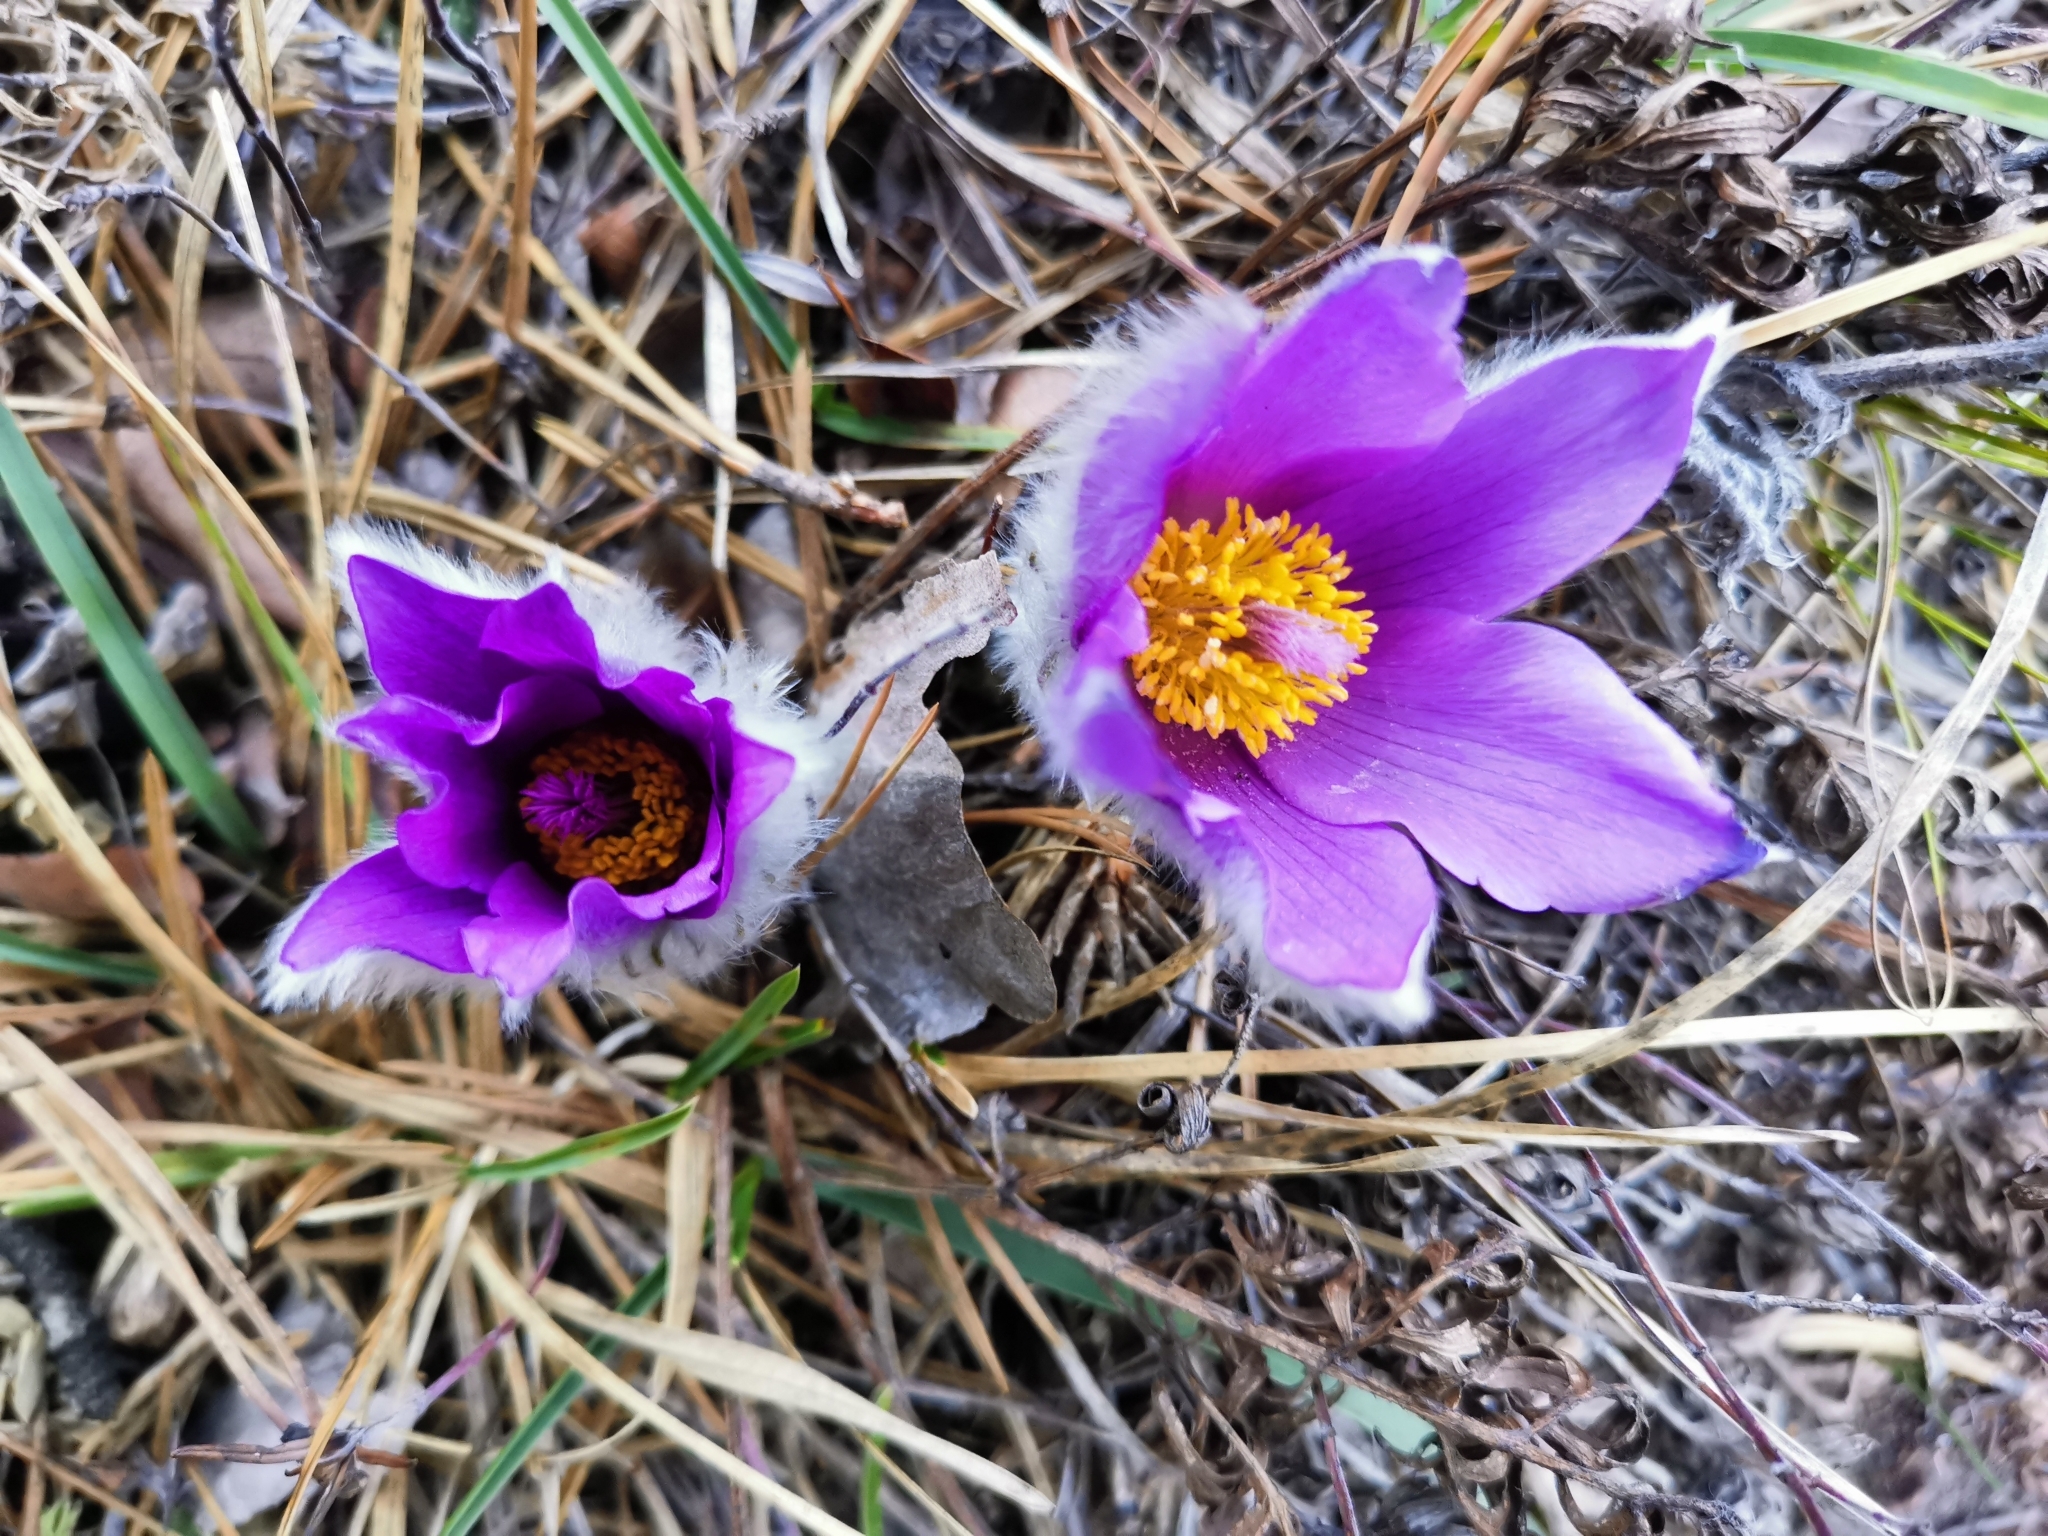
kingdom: Plantae
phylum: Tracheophyta
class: Magnoliopsida
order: Ranunculales
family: Ranunculaceae
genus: Pulsatilla
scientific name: Pulsatilla grandis
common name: Greater pasque flower
